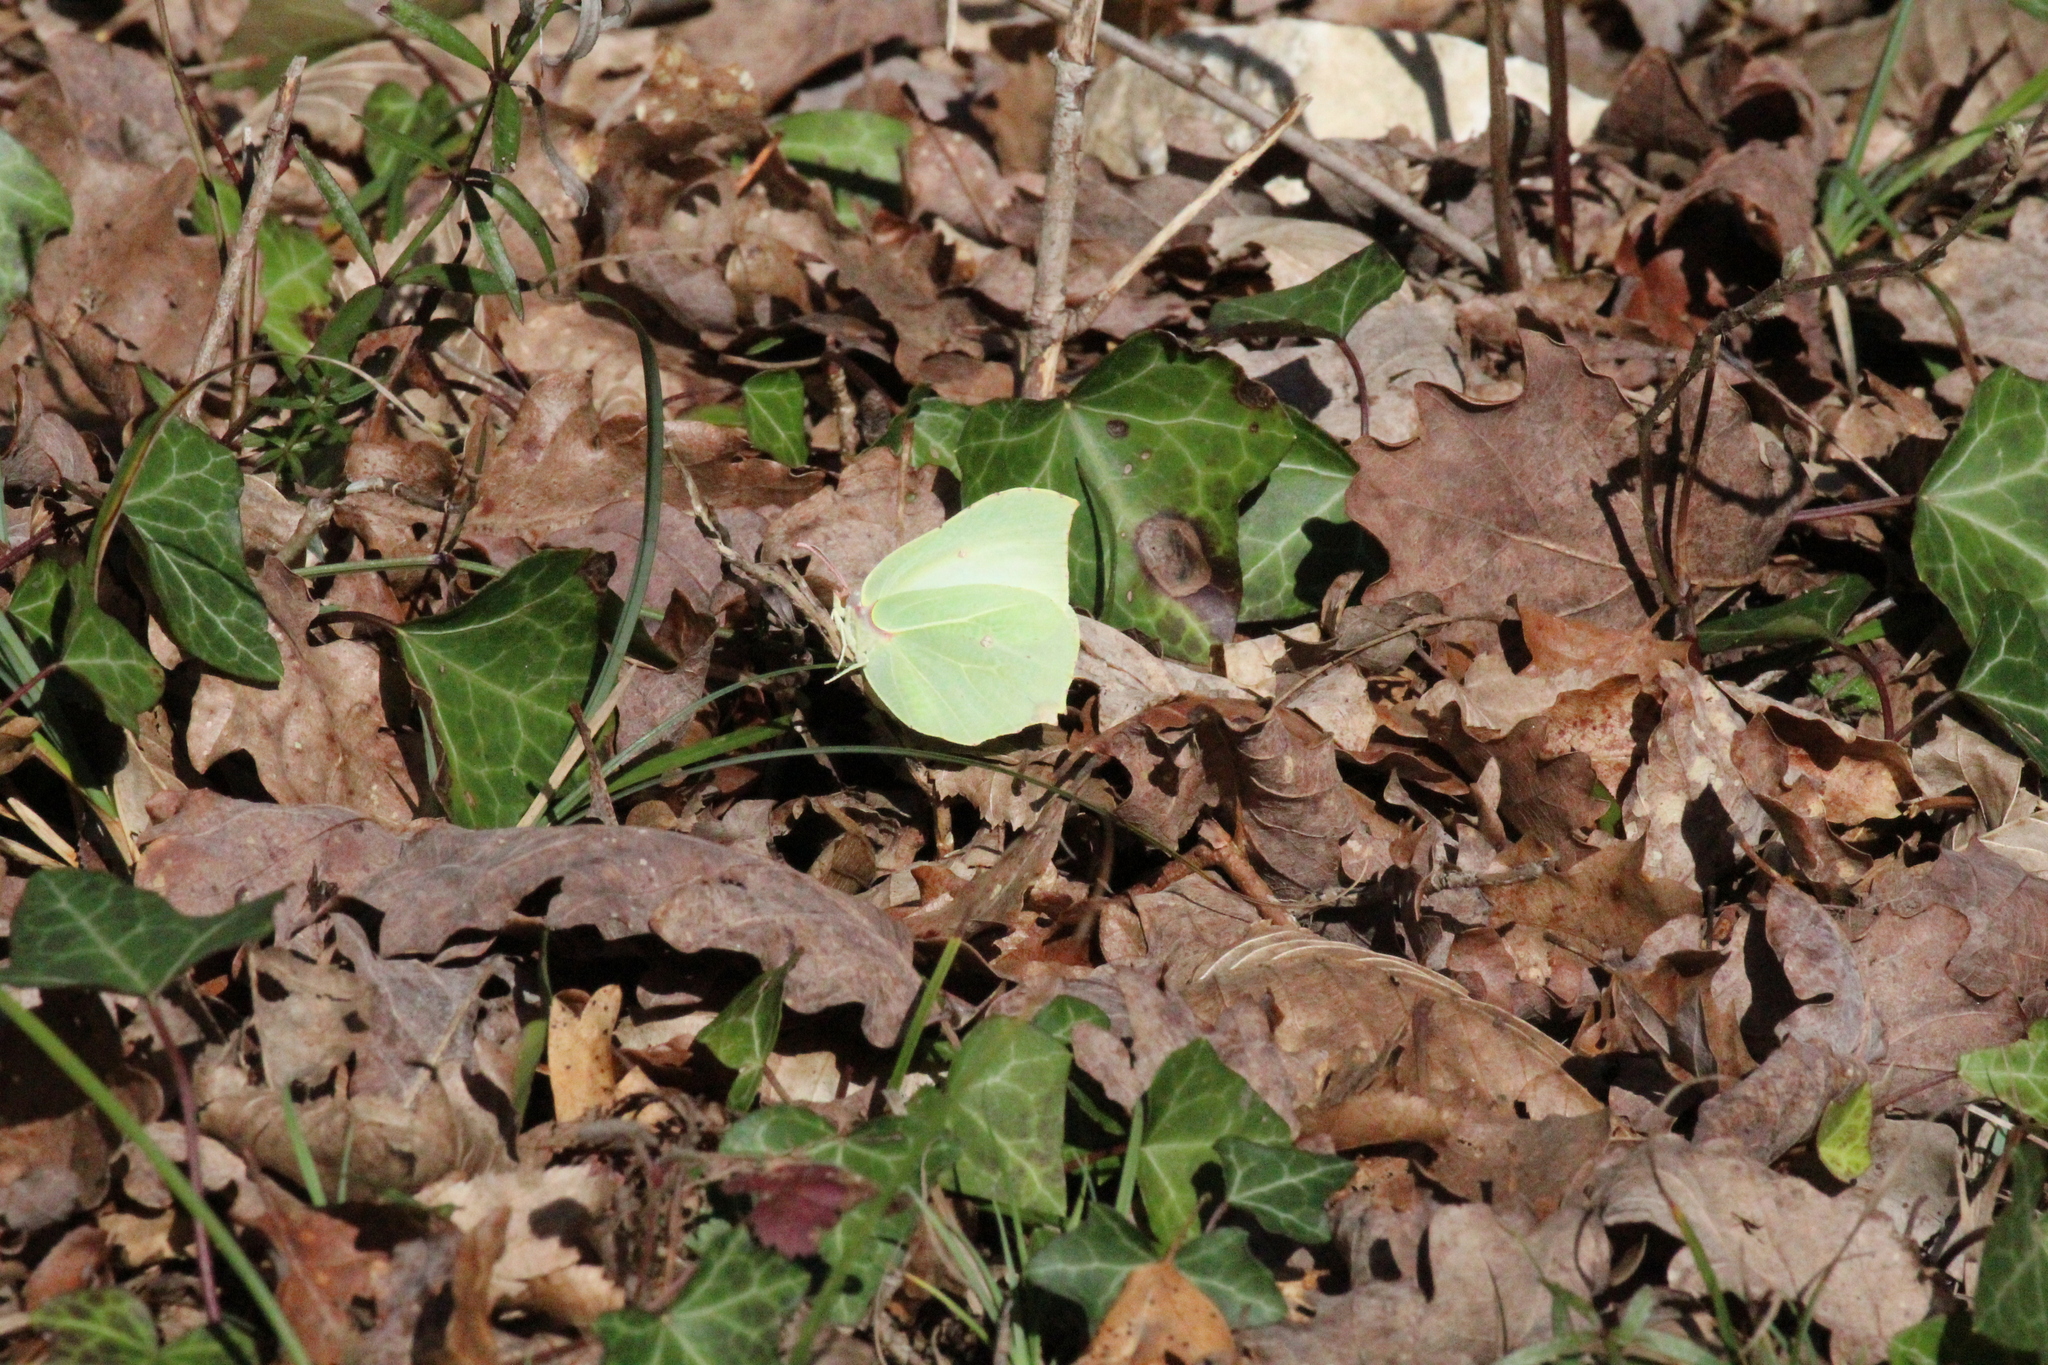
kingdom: Animalia
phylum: Arthropoda
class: Insecta
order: Lepidoptera
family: Pieridae
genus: Gonepteryx
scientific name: Gonepteryx rhamni
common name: Brimstone
